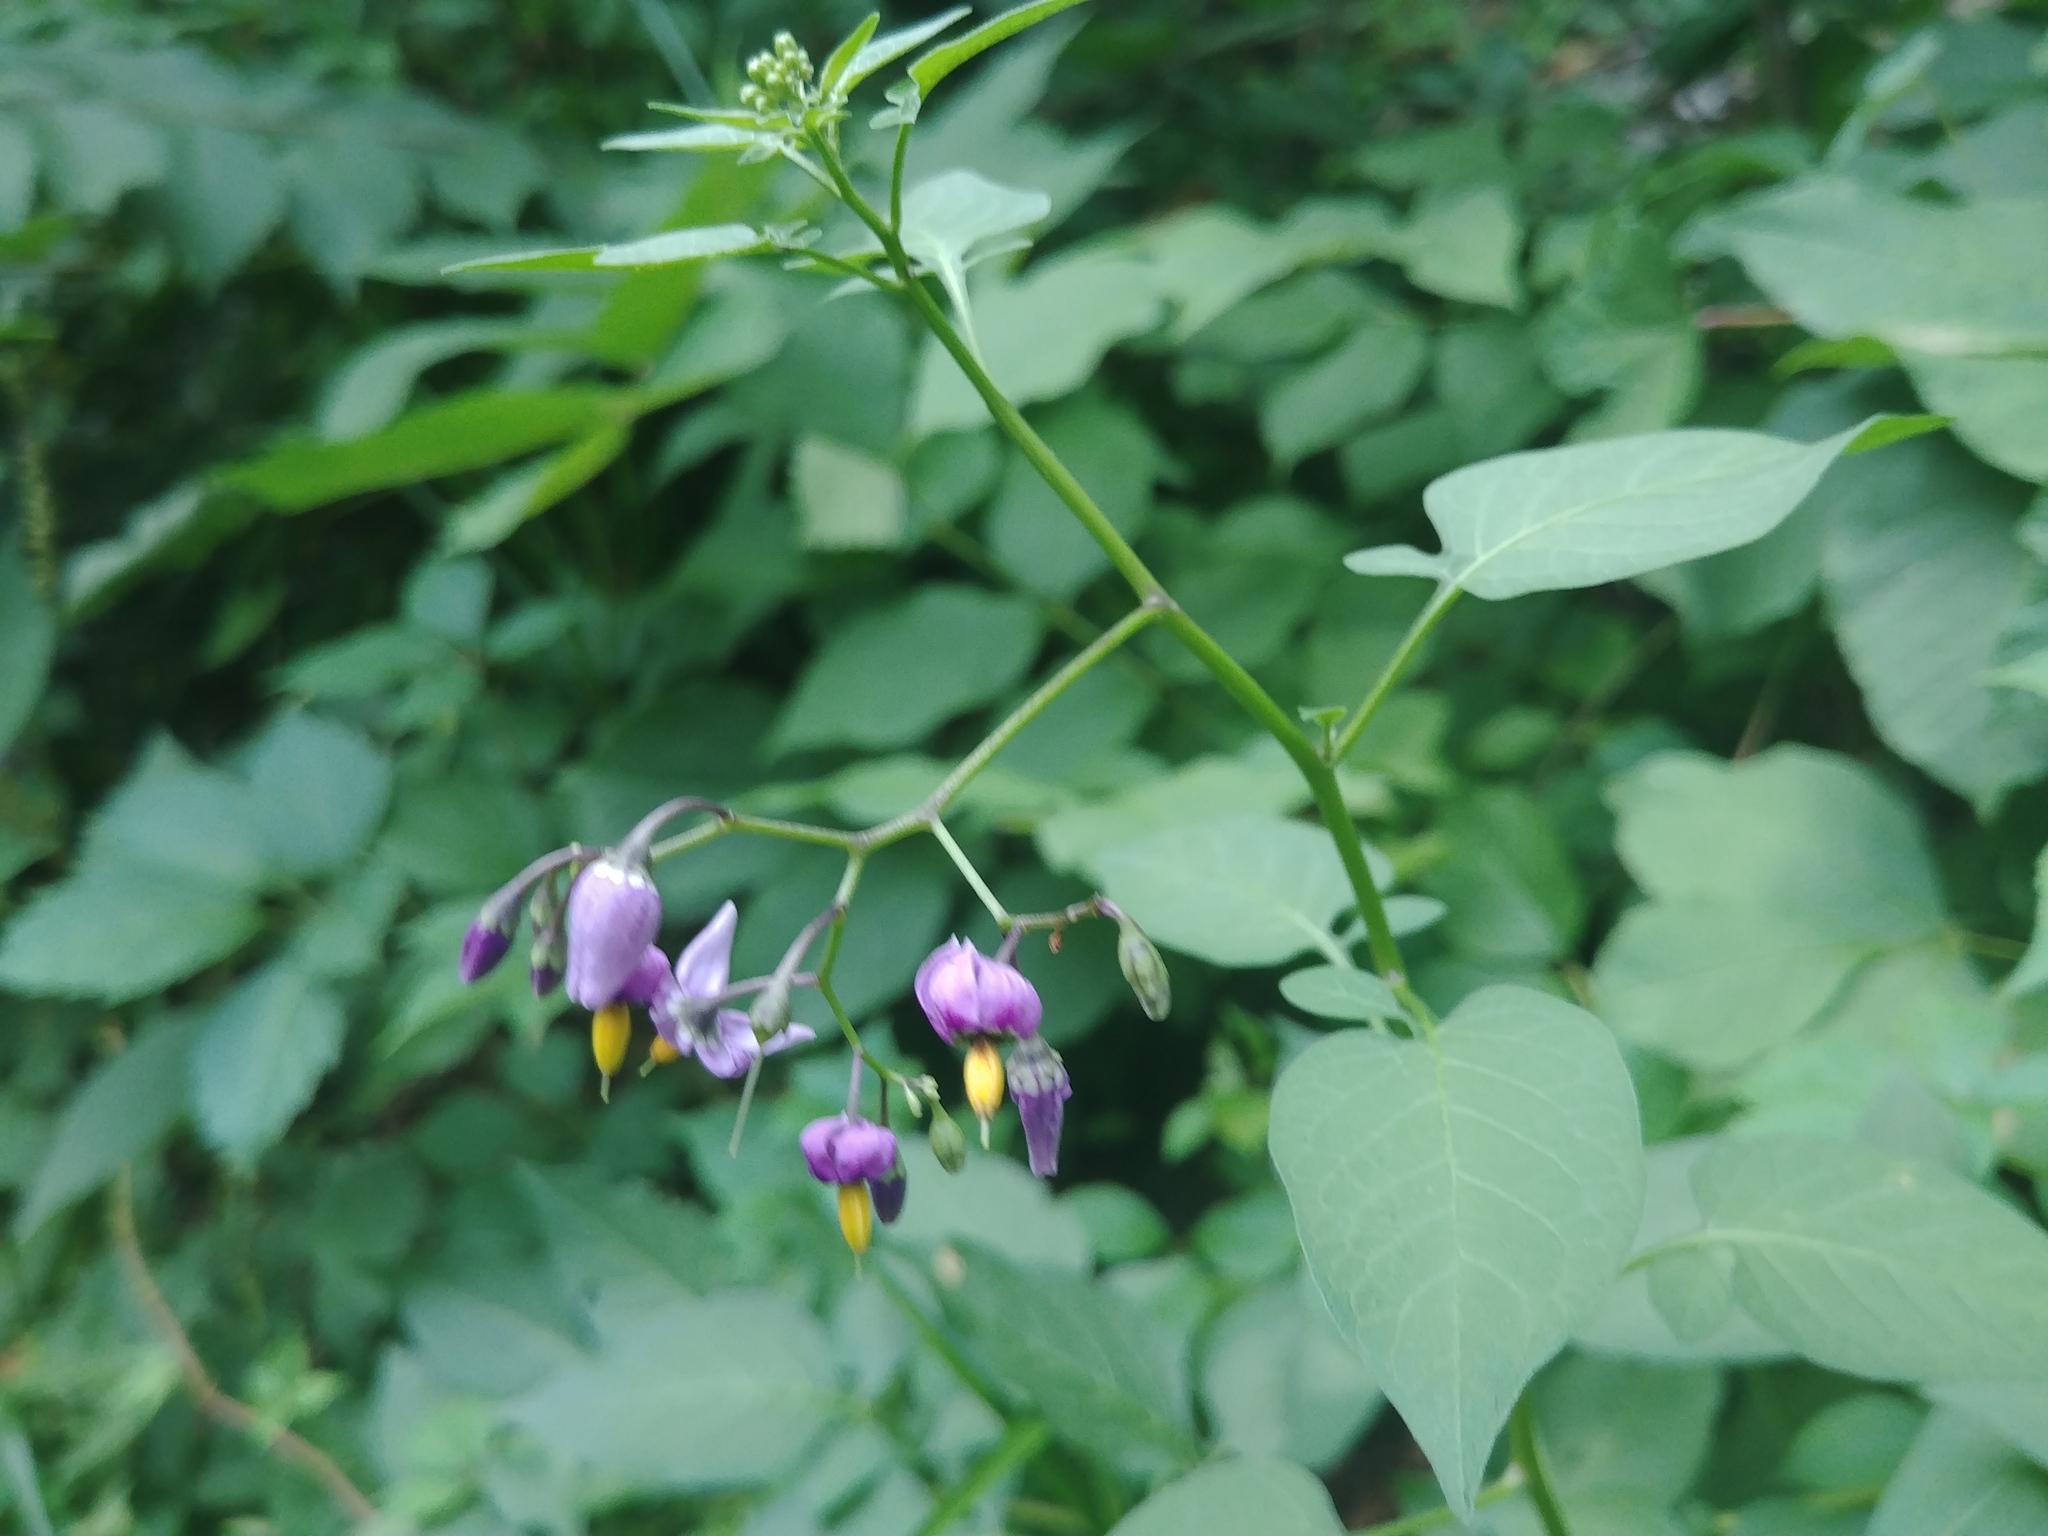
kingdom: Plantae
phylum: Tracheophyta
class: Magnoliopsida
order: Solanales
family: Solanaceae
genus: Solanum
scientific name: Solanum dulcamara
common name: Climbing nightshade
